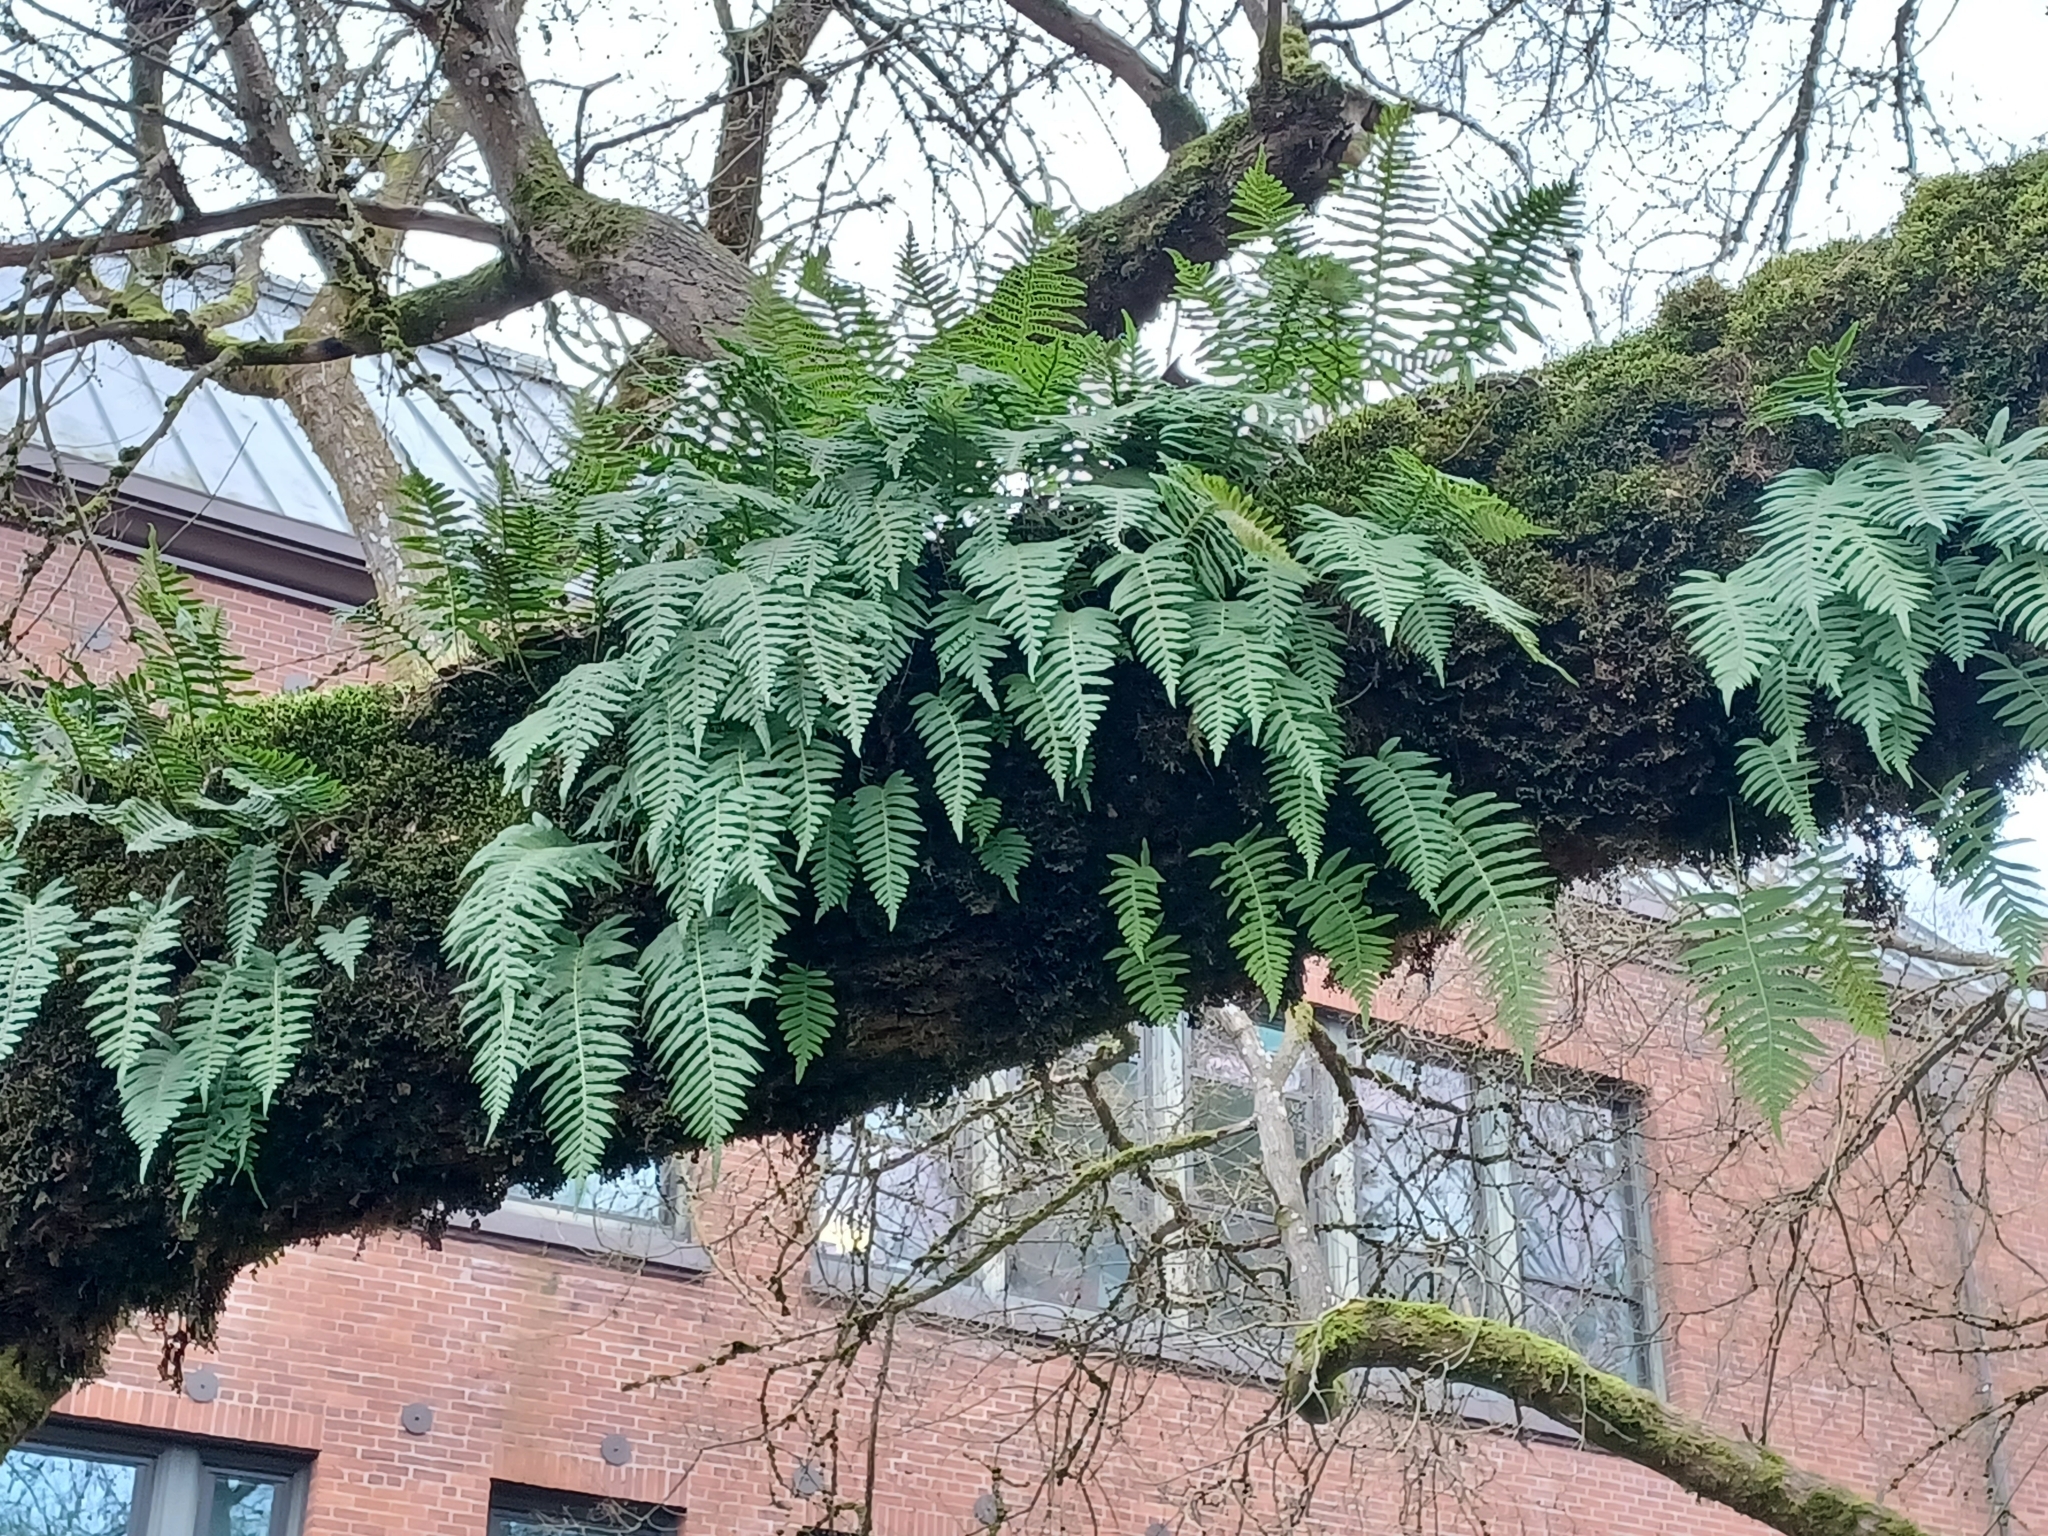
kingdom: Plantae
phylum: Tracheophyta
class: Polypodiopsida
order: Polypodiales
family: Polypodiaceae
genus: Polypodium
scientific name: Polypodium glycyrrhiza
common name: Licorice fern
